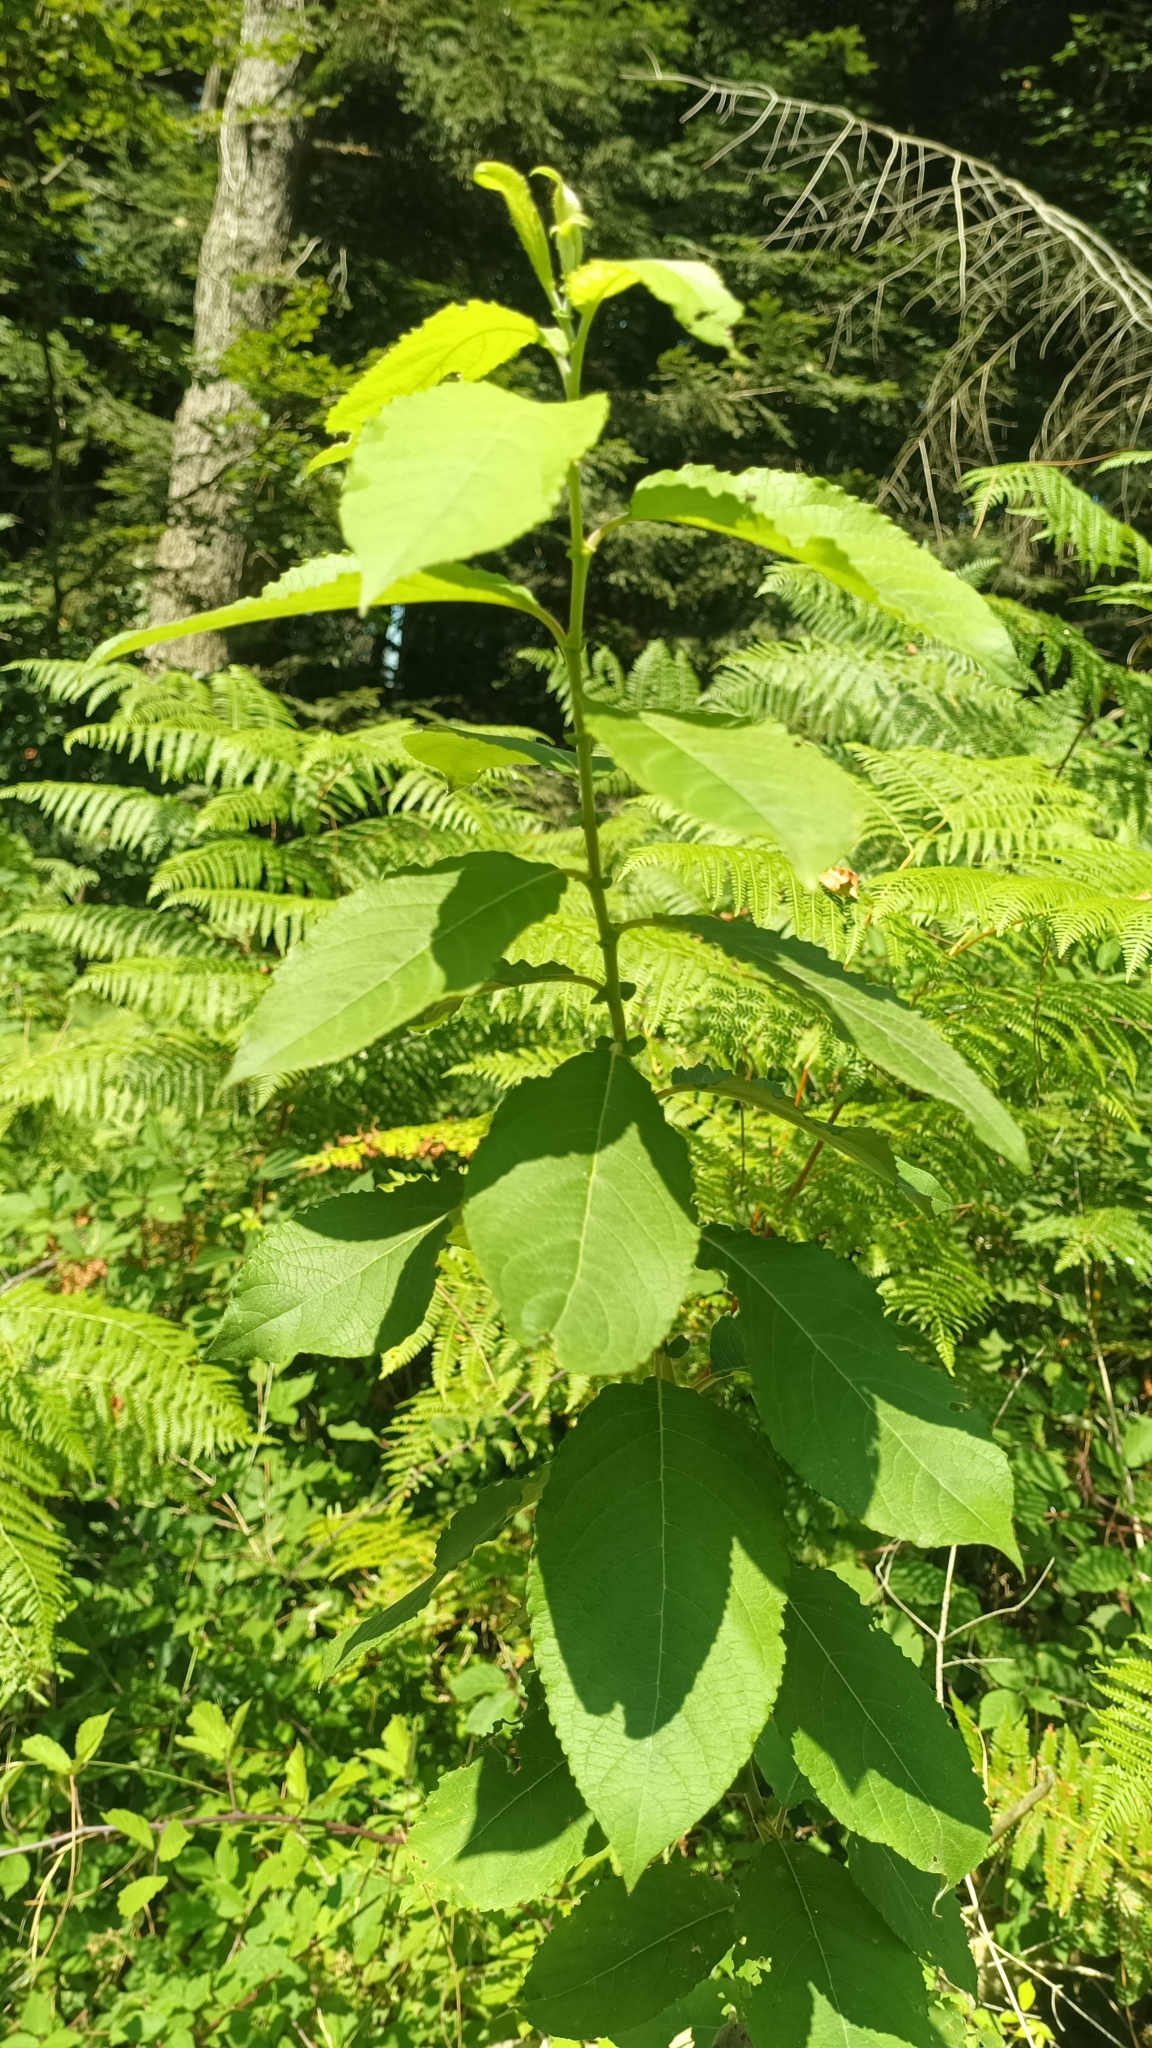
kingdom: Plantae
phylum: Tracheophyta
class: Magnoliopsida
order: Malpighiales
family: Salicaceae
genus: Salix
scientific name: Salix caprea
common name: Goat willow
